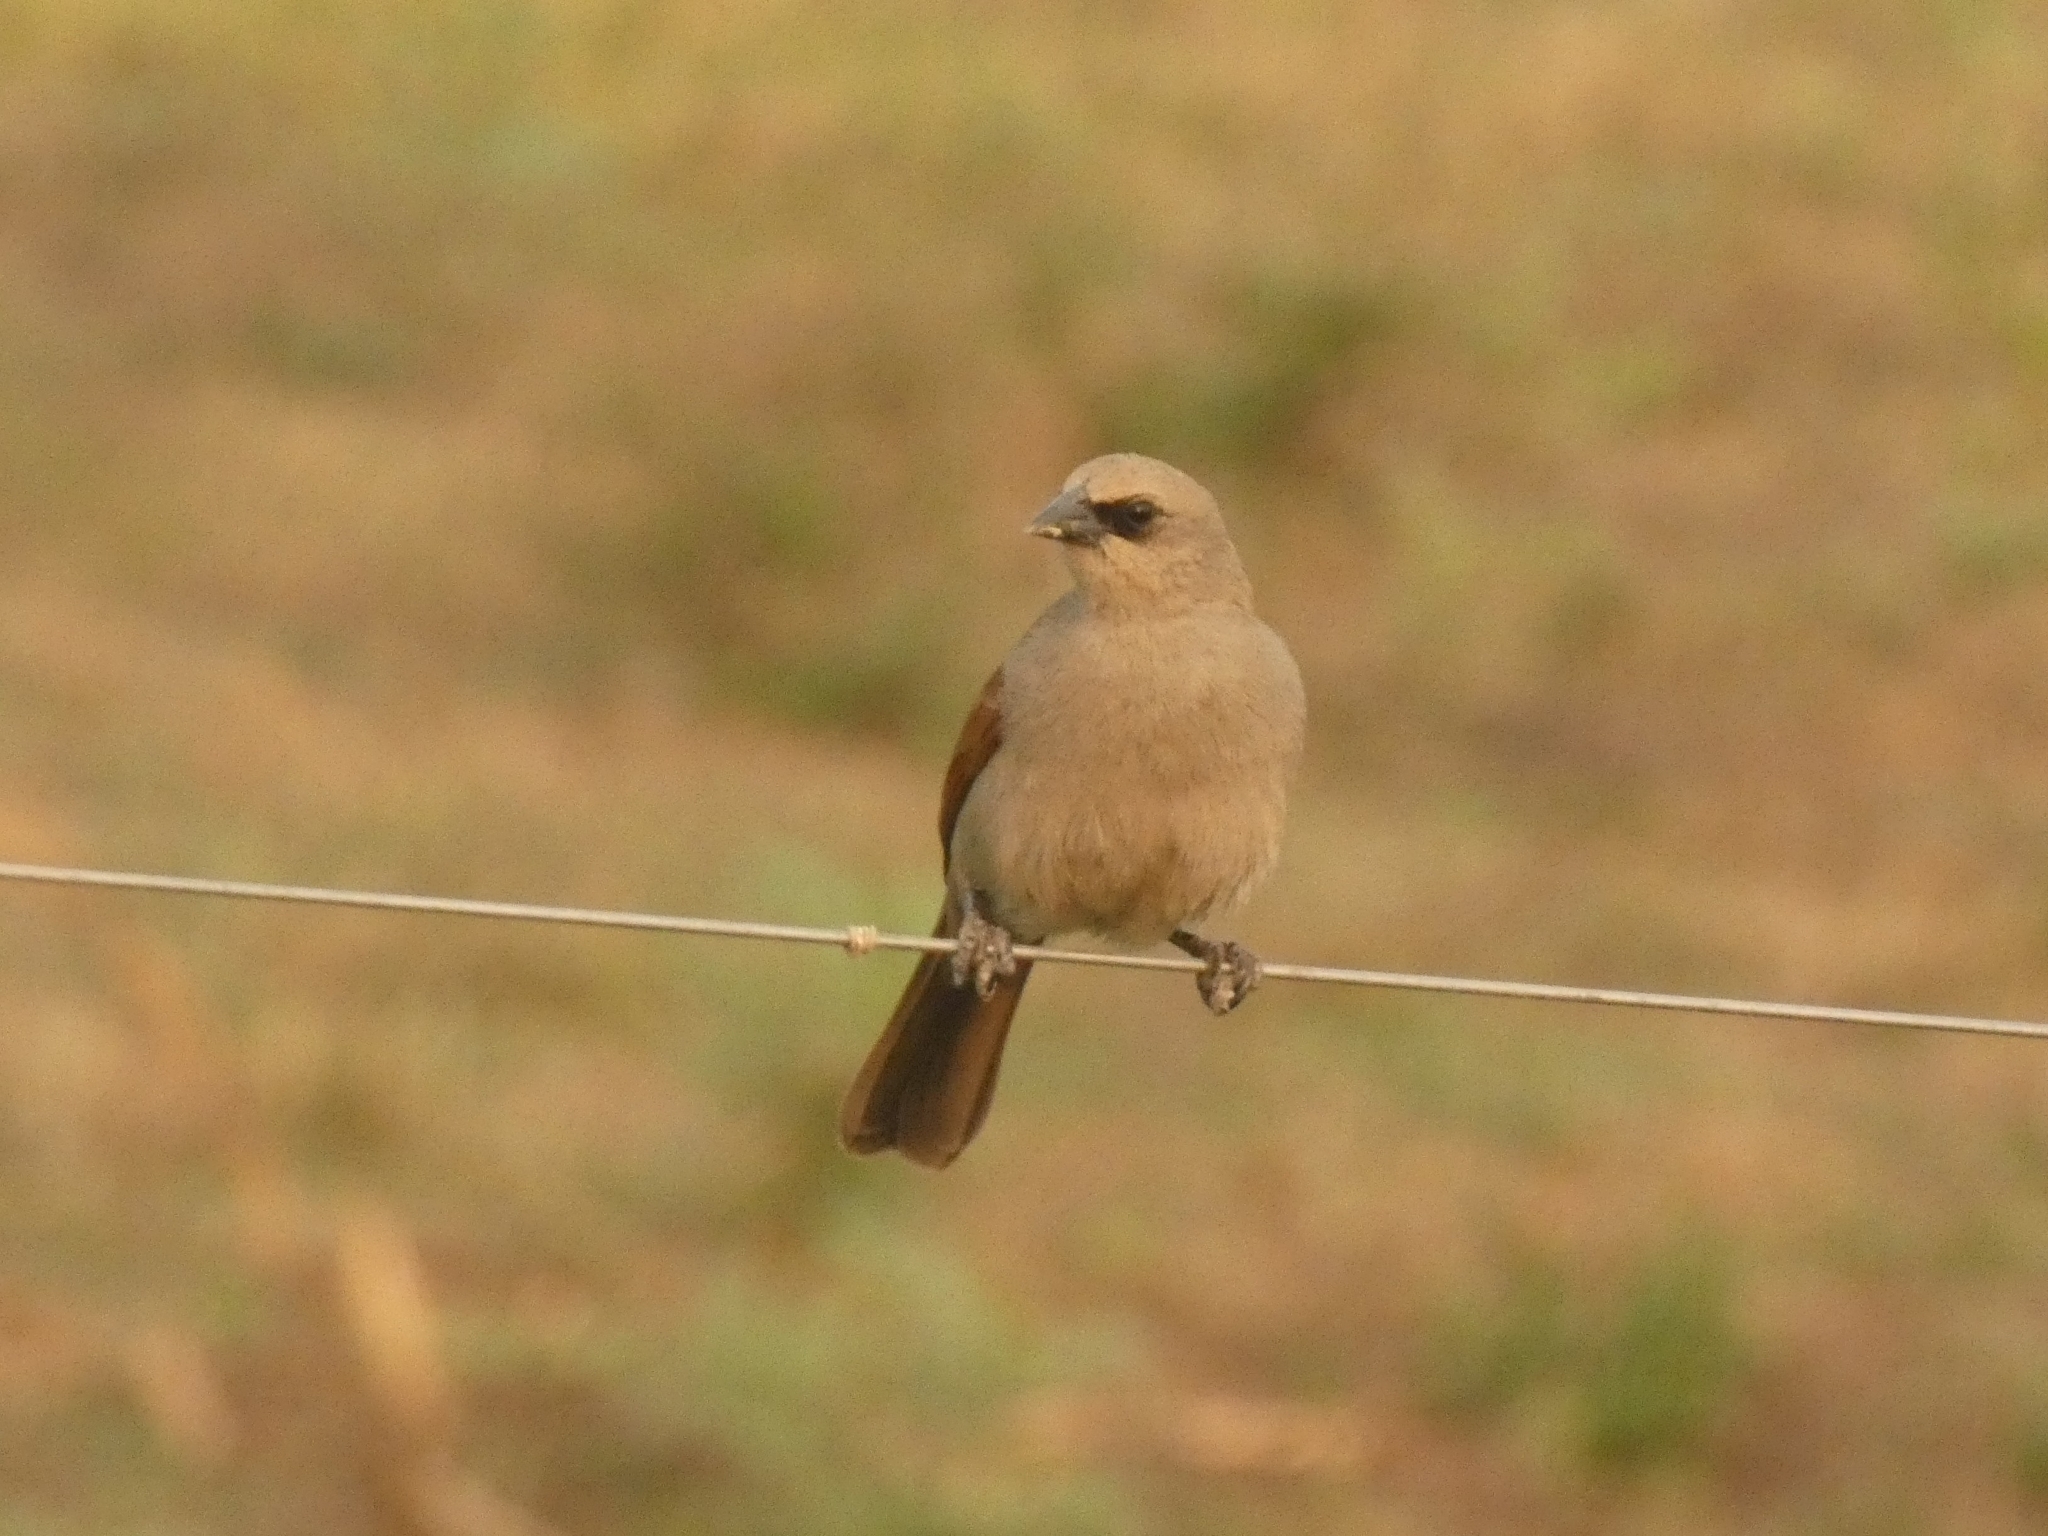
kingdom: Animalia
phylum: Chordata
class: Aves
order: Passeriformes
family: Icteridae
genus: Agelaioides
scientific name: Agelaioides badius
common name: Baywing
